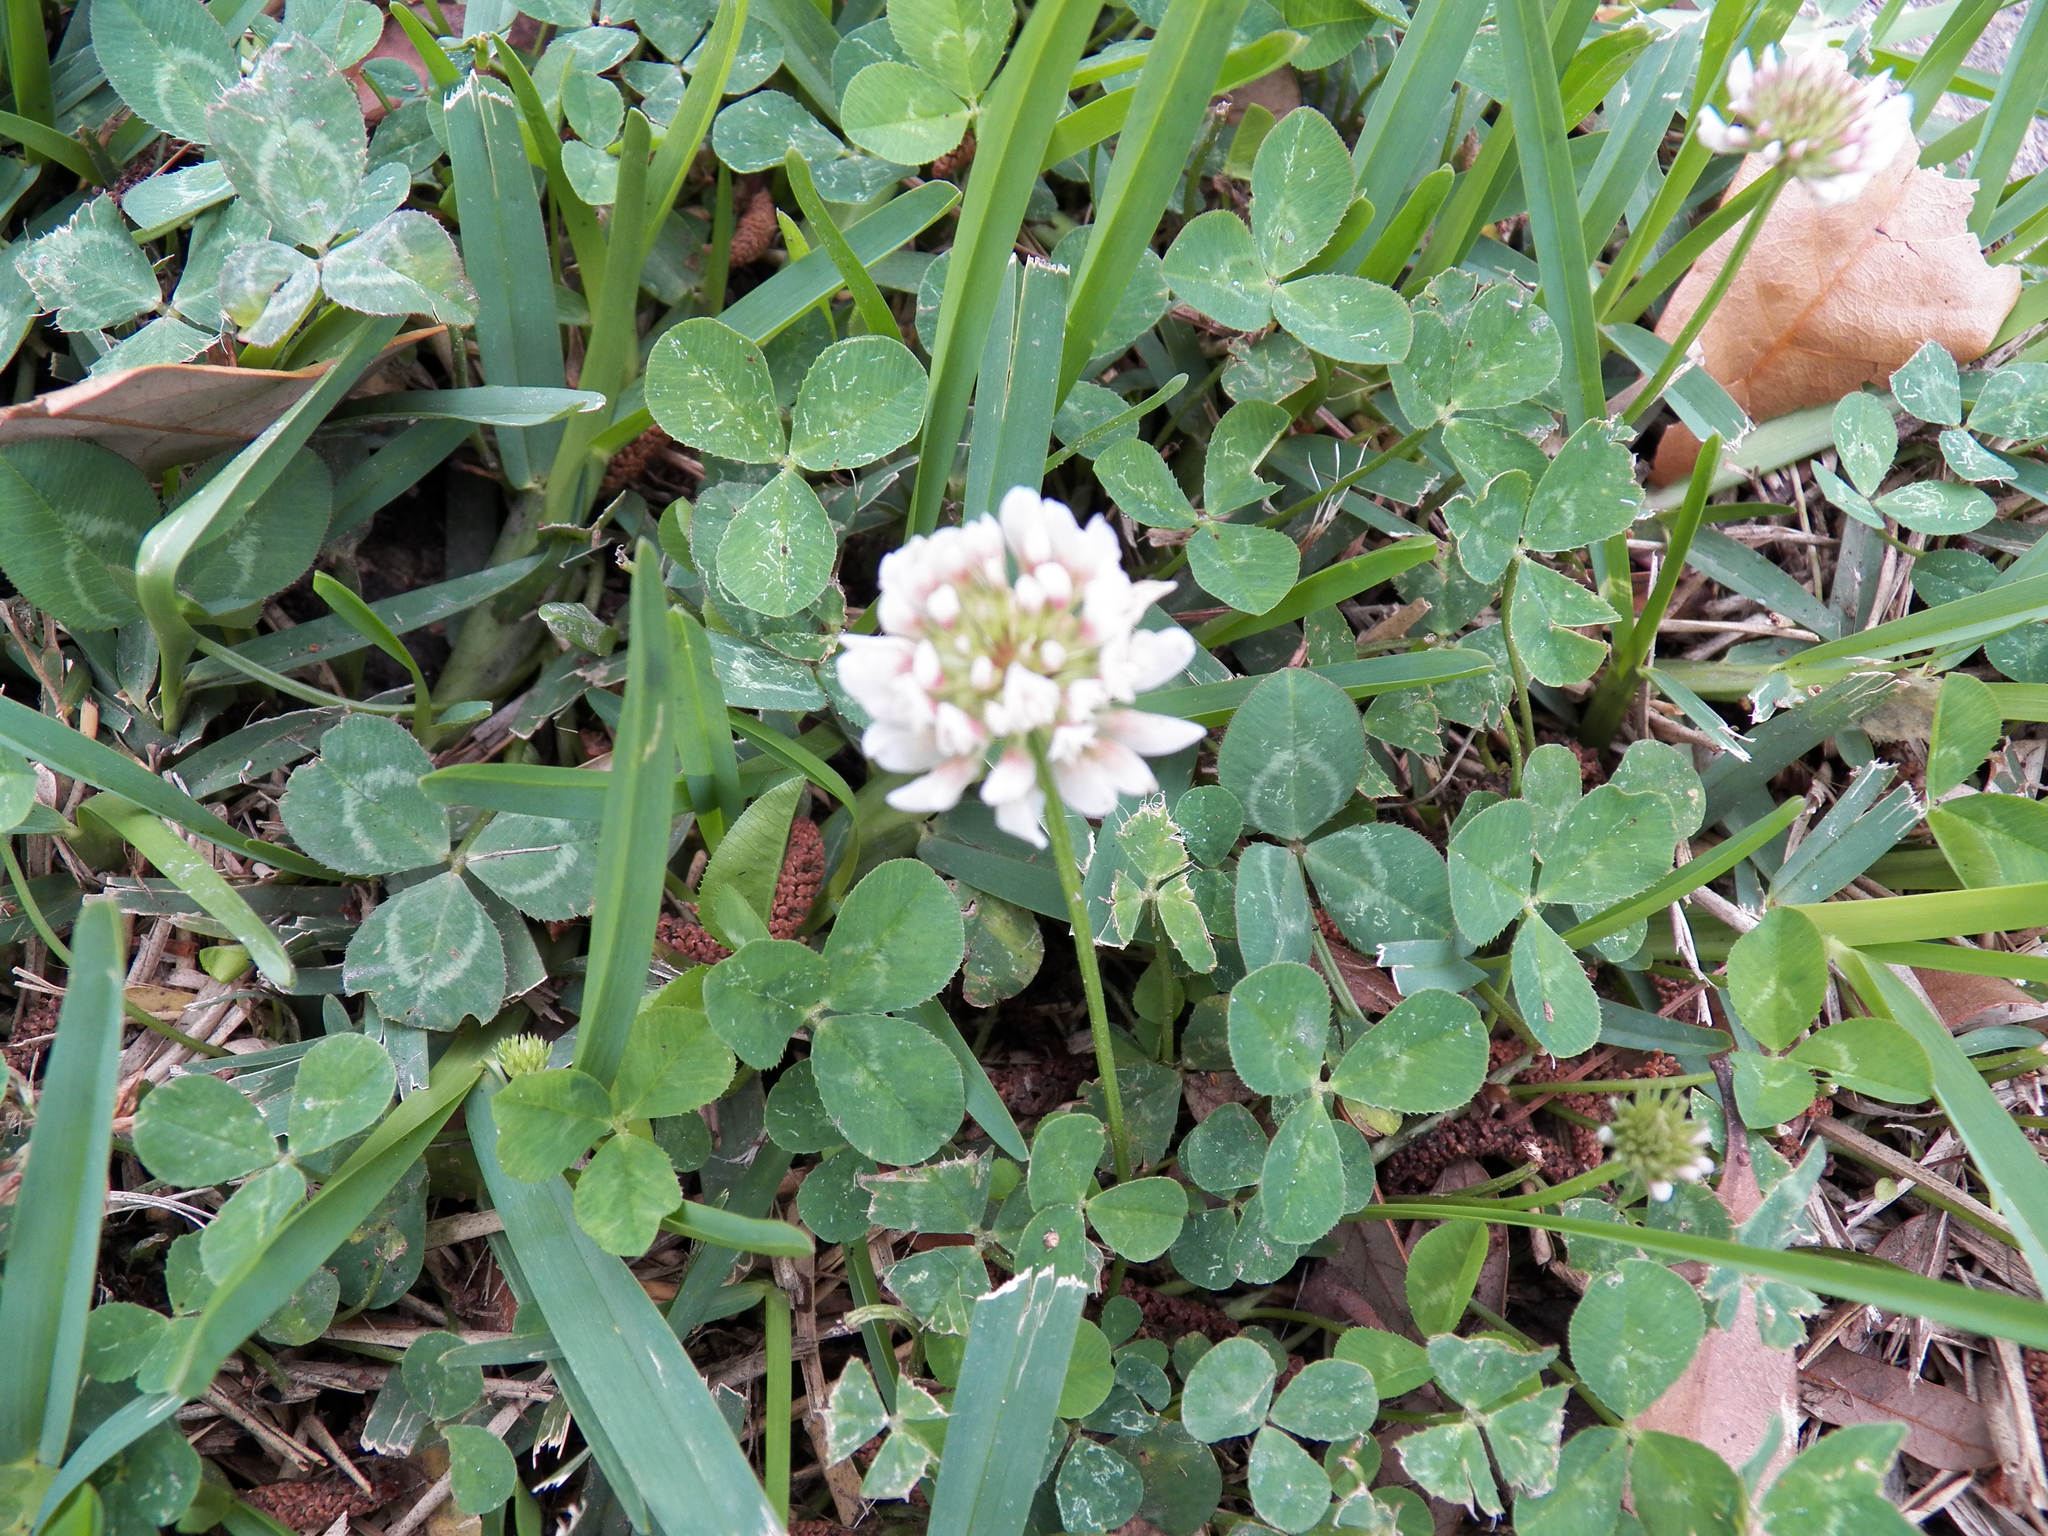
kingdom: Plantae
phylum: Tracheophyta
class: Magnoliopsida
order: Fabales
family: Fabaceae
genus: Trifolium
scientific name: Trifolium repens
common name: White clover
